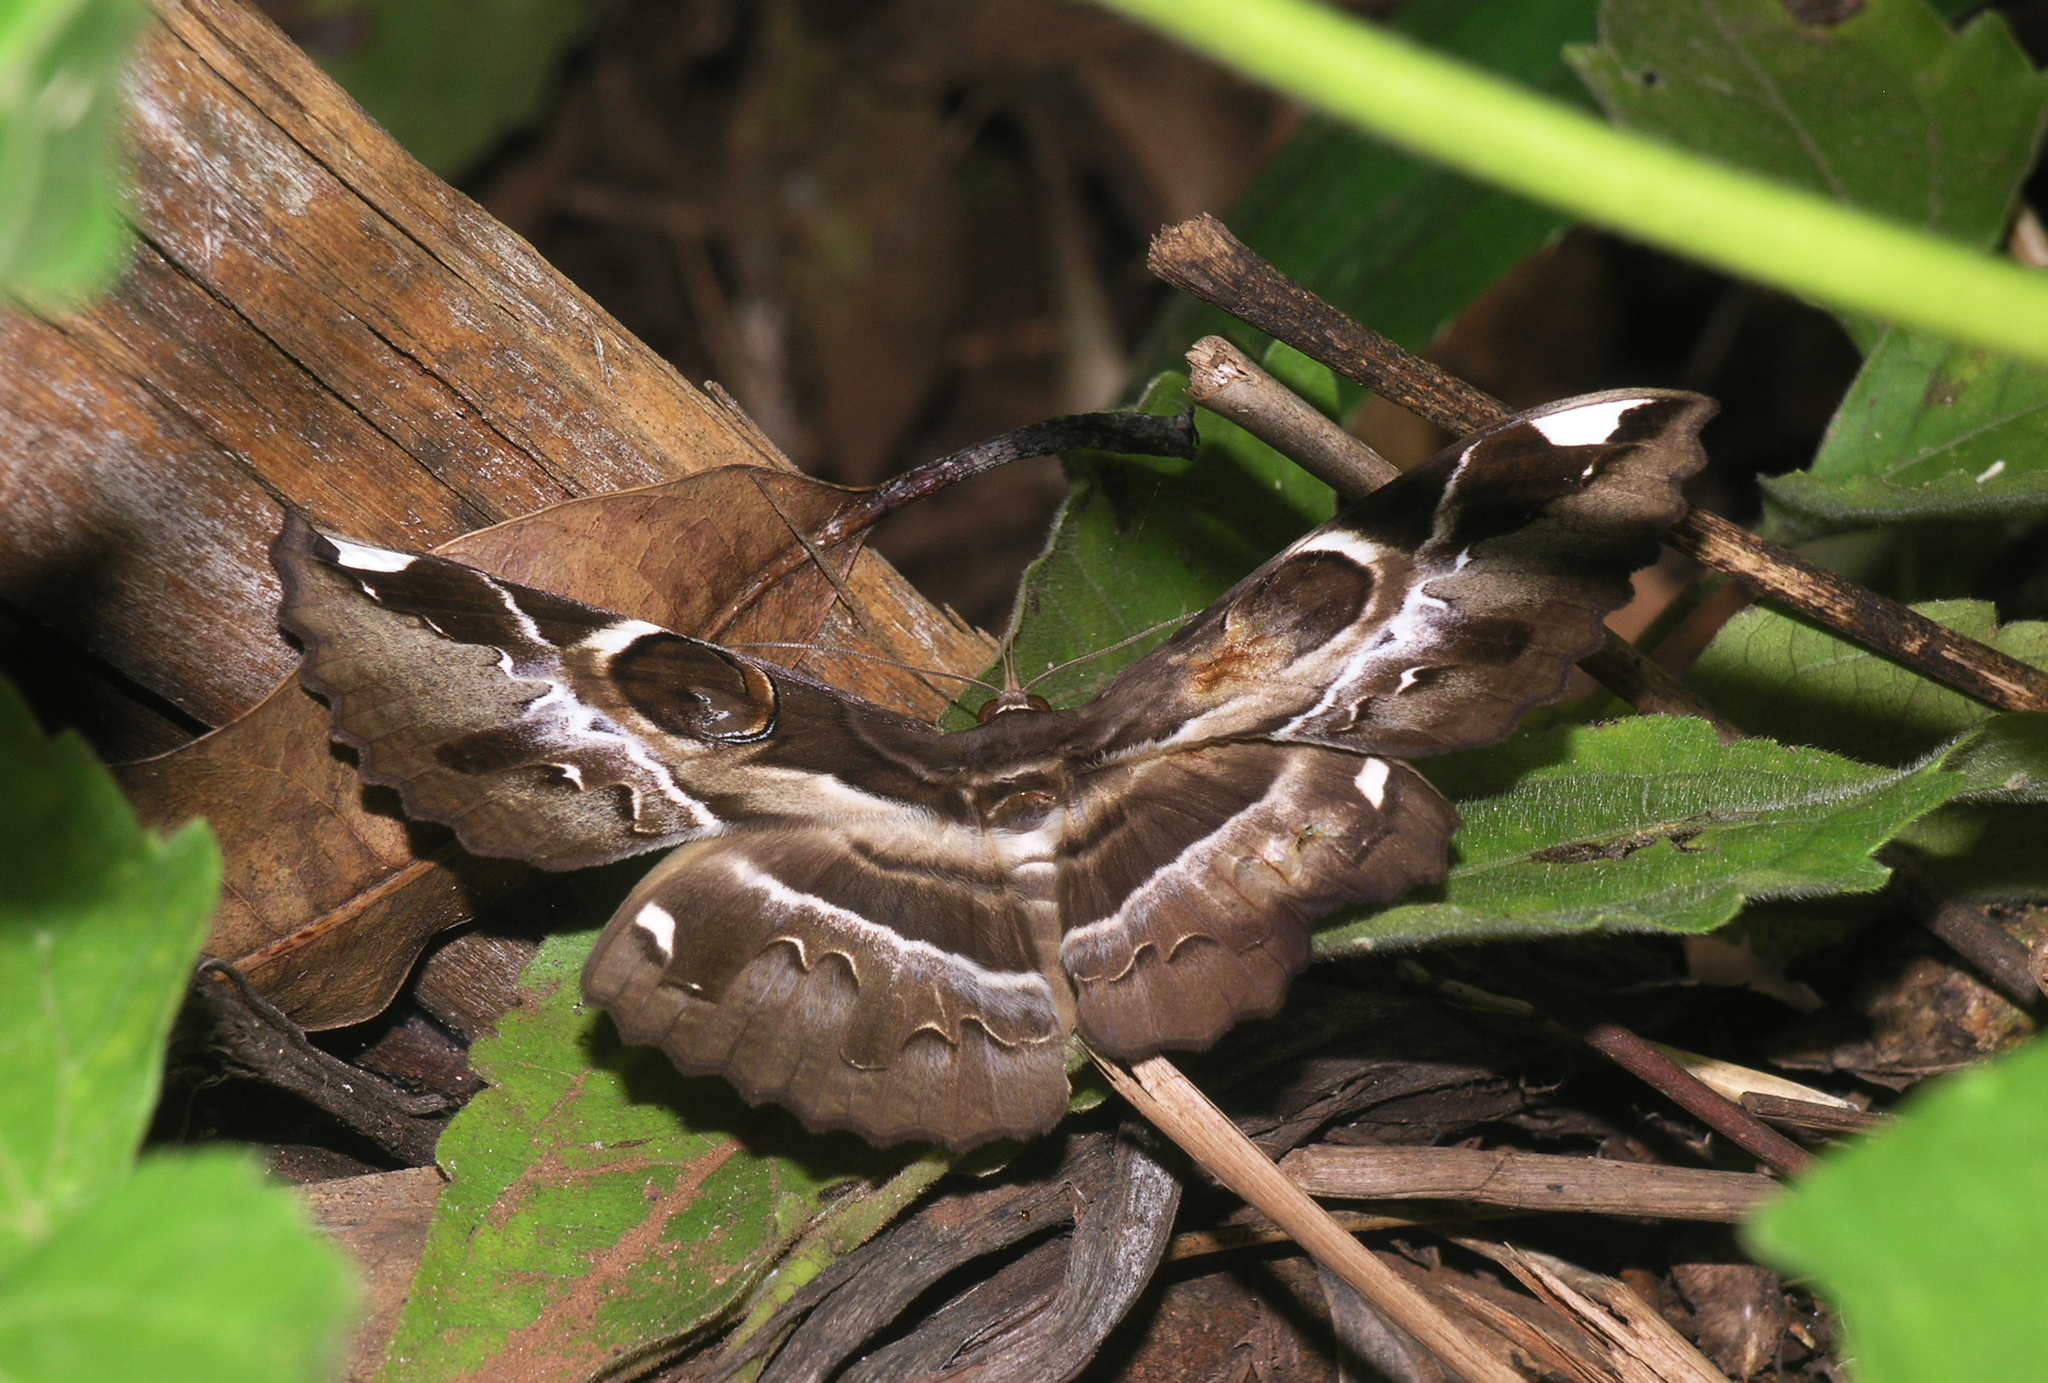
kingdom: Animalia
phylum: Arthropoda
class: Insecta
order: Lepidoptera
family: Erebidae
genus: Erebus
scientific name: Erebus ephesperis
